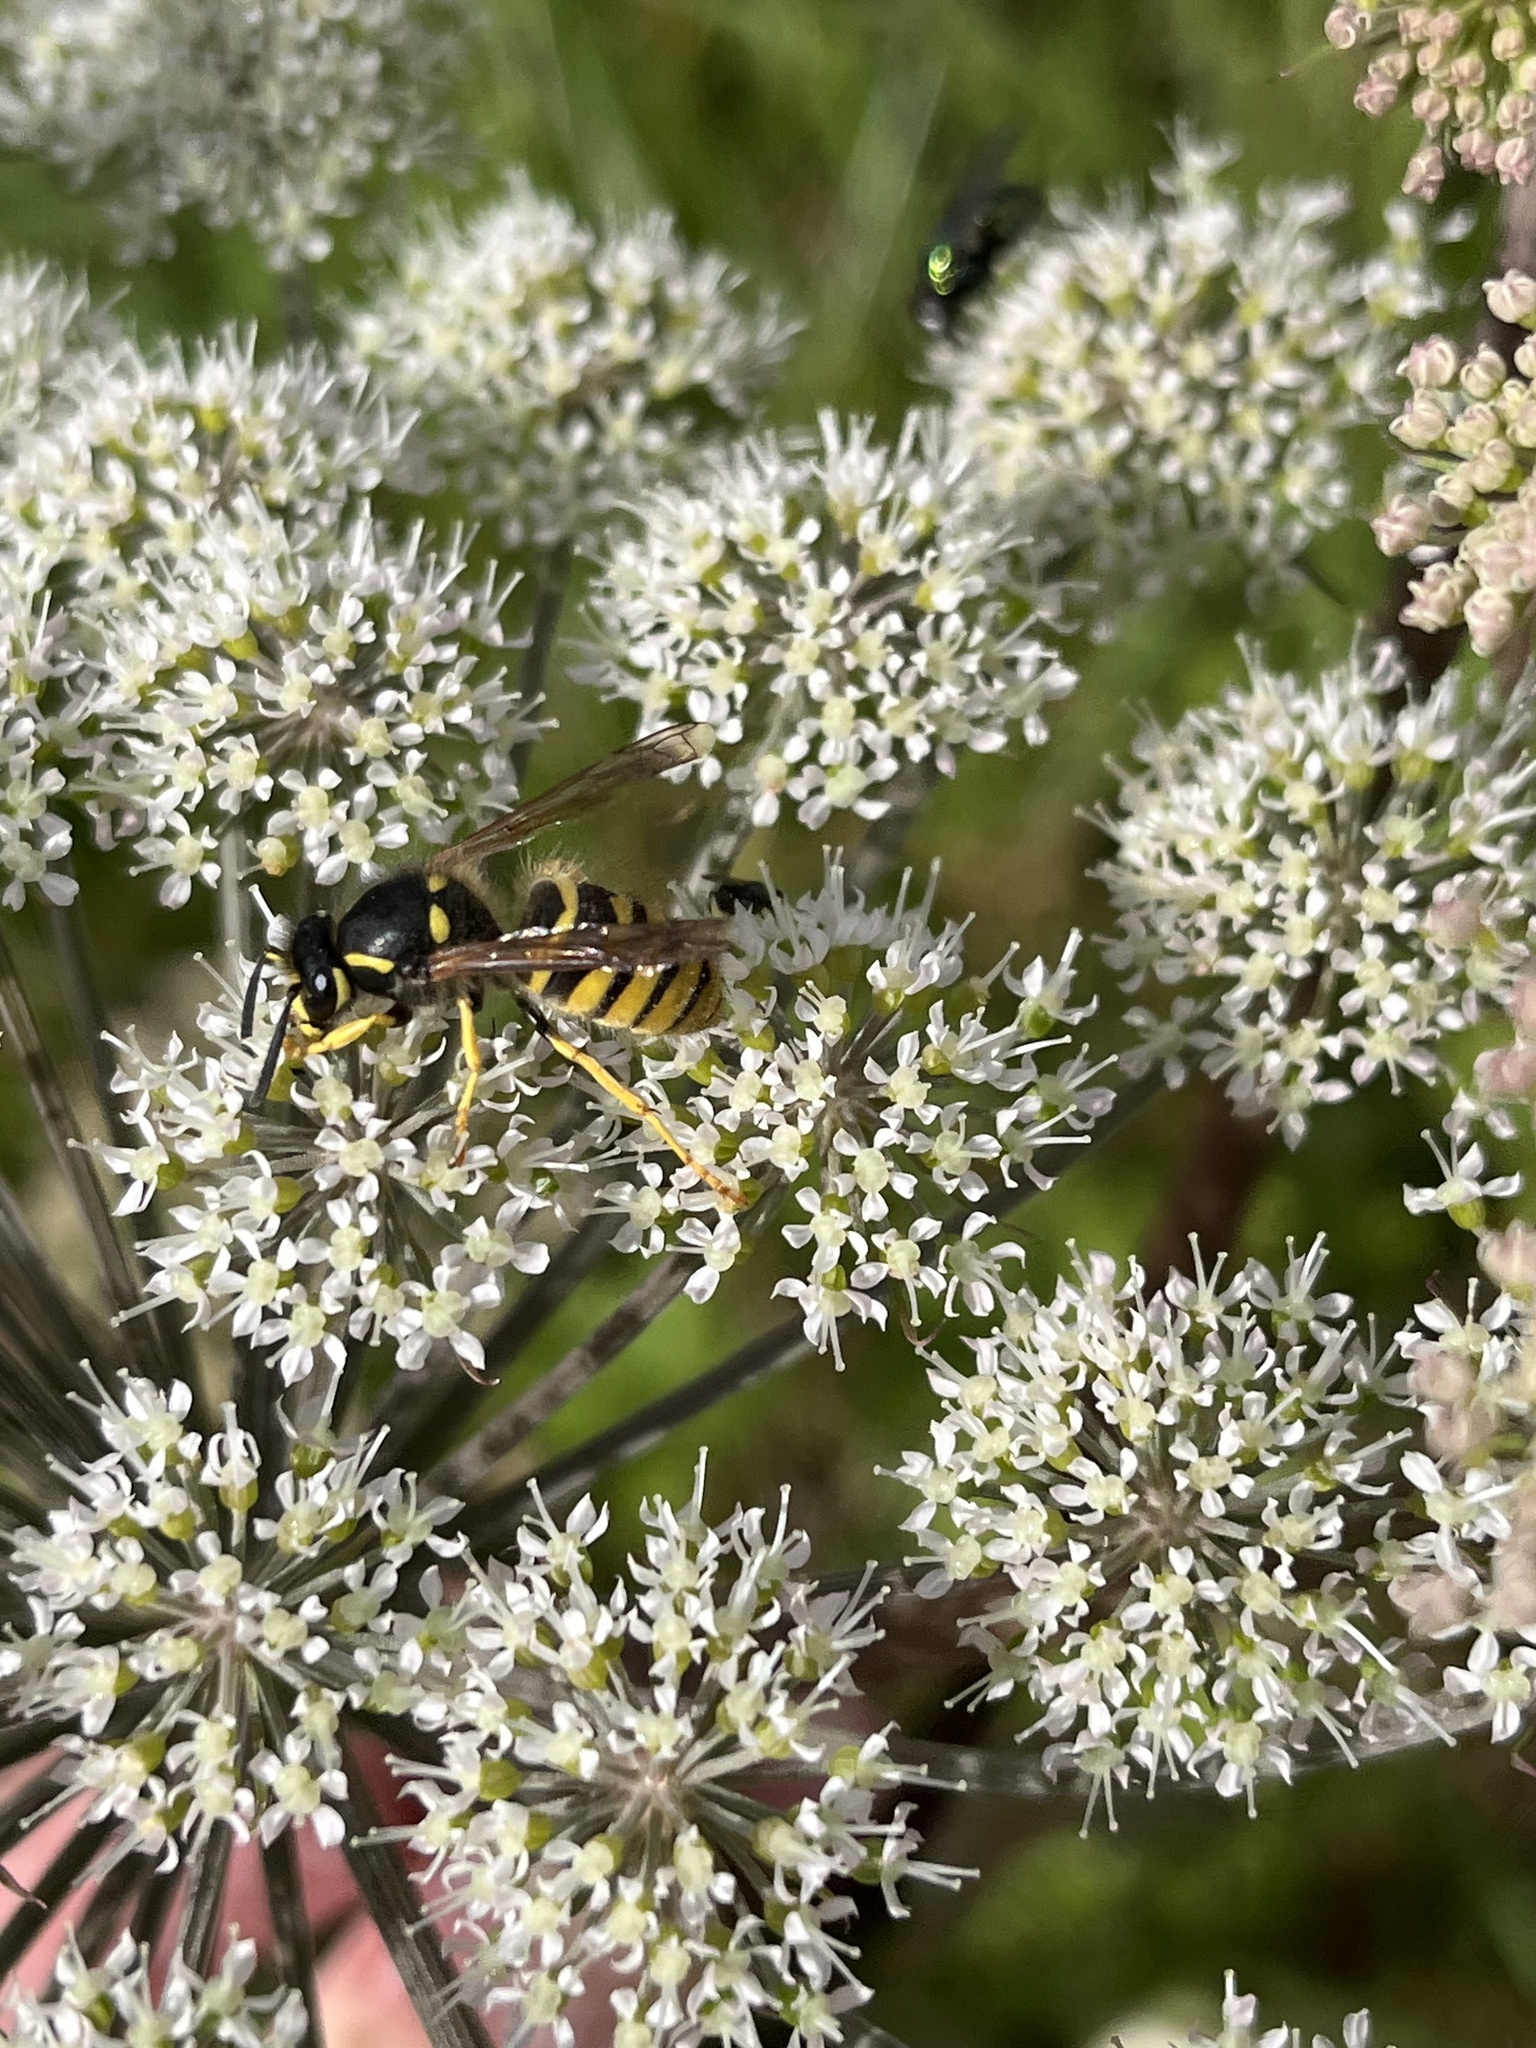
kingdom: Animalia
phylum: Arthropoda
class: Insecta
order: Hymenoptera
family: Vespidae
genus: Dolichovespula
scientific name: Dolichovespula sylvestris
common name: Tree wasp
